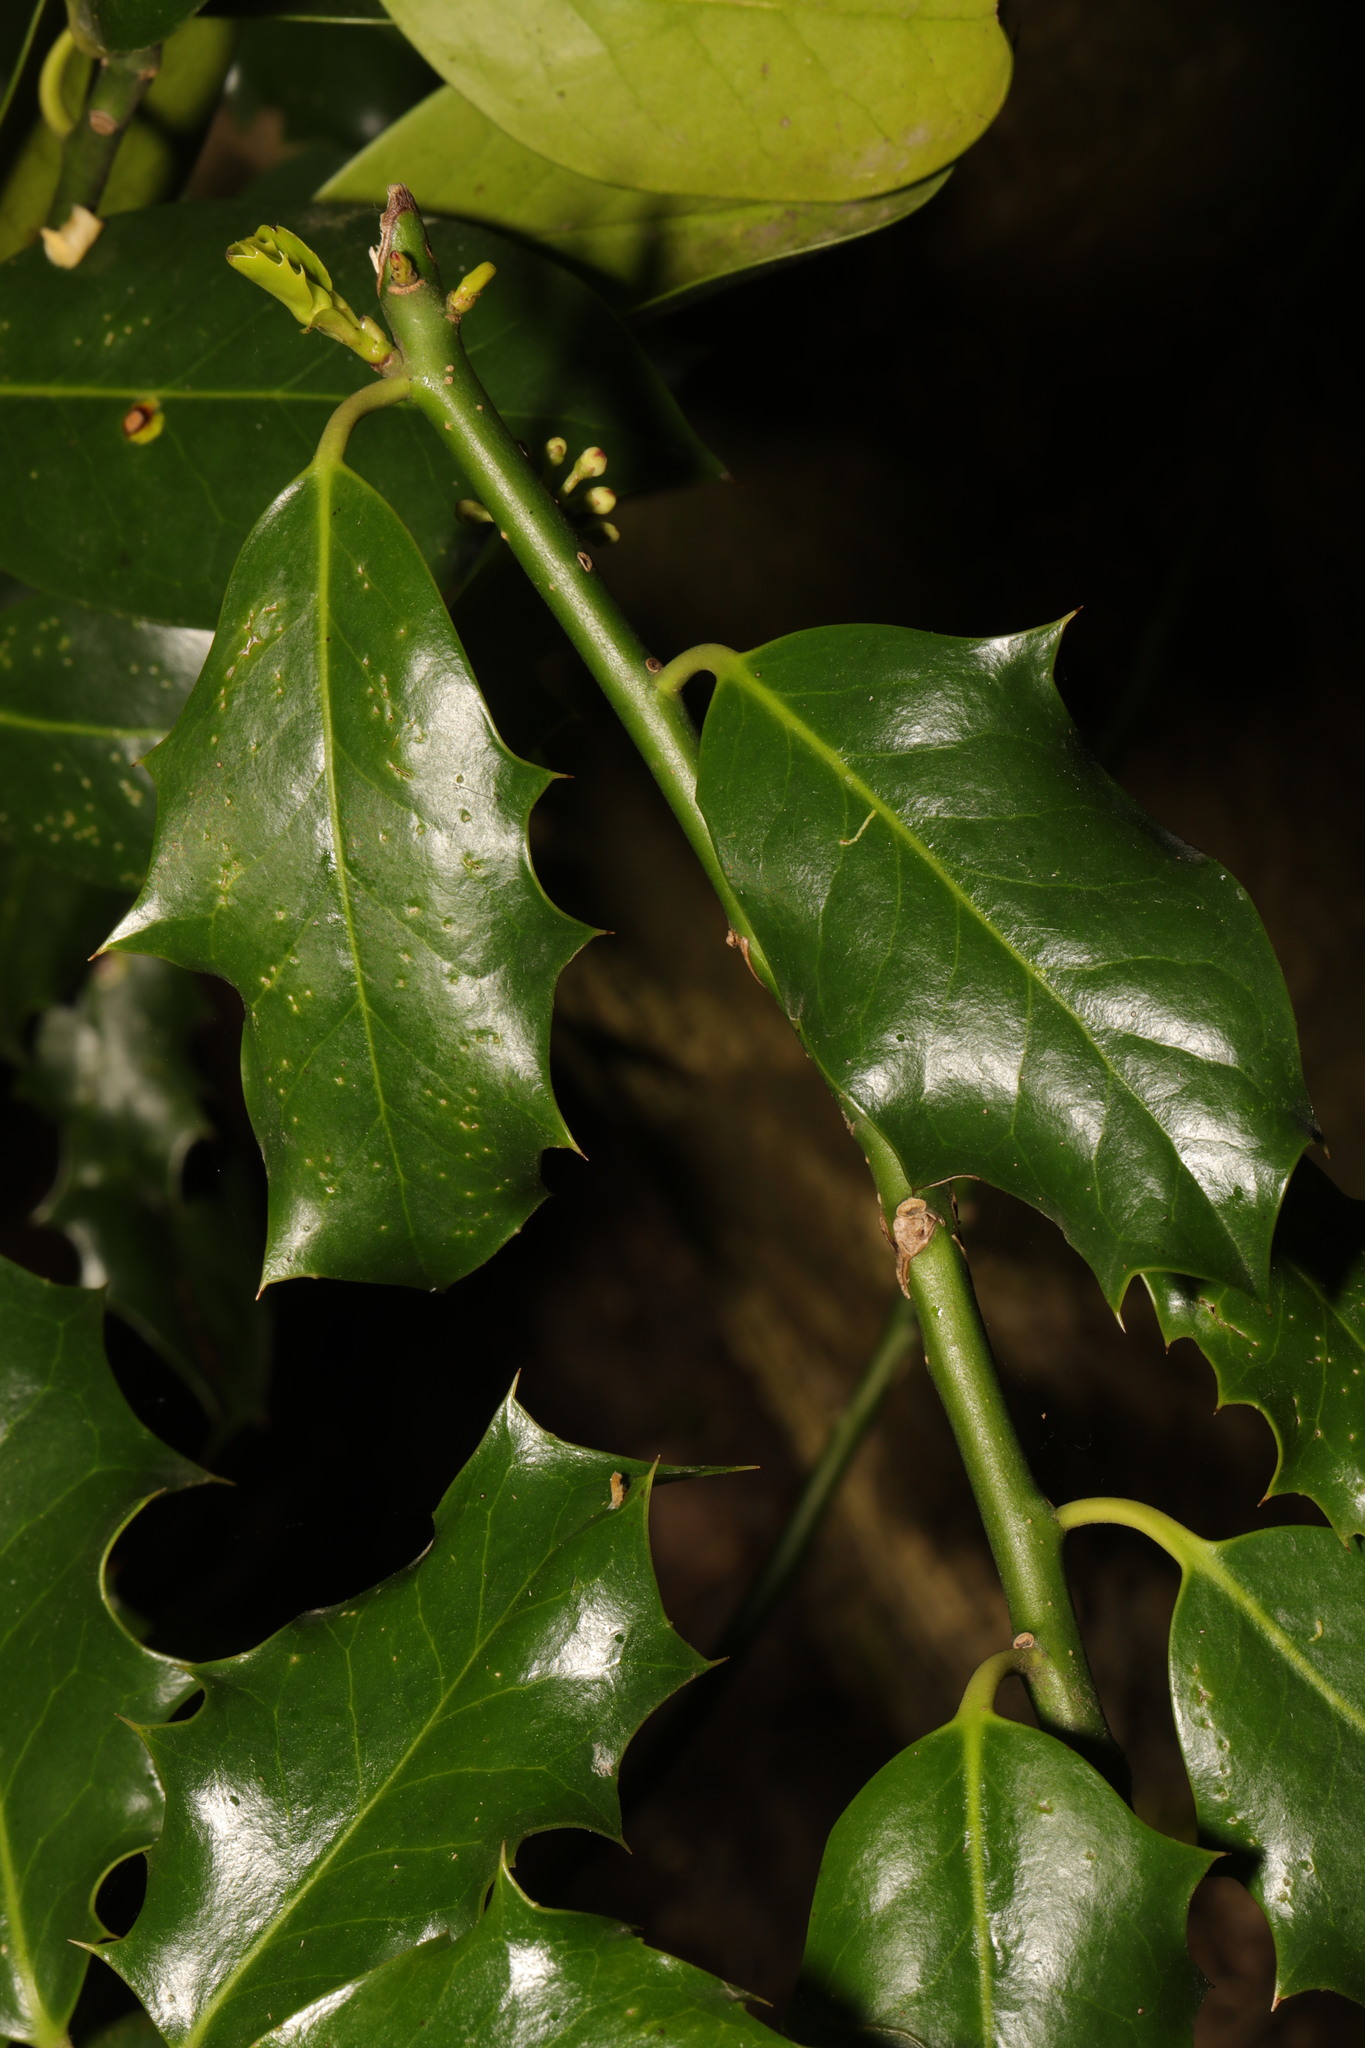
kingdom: Plantae
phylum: Tracheophyta
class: Magnoliopsida
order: Aquifoliales
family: Aquifoliaceae
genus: Ilex
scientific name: Ilex aquifolium
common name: English holly
